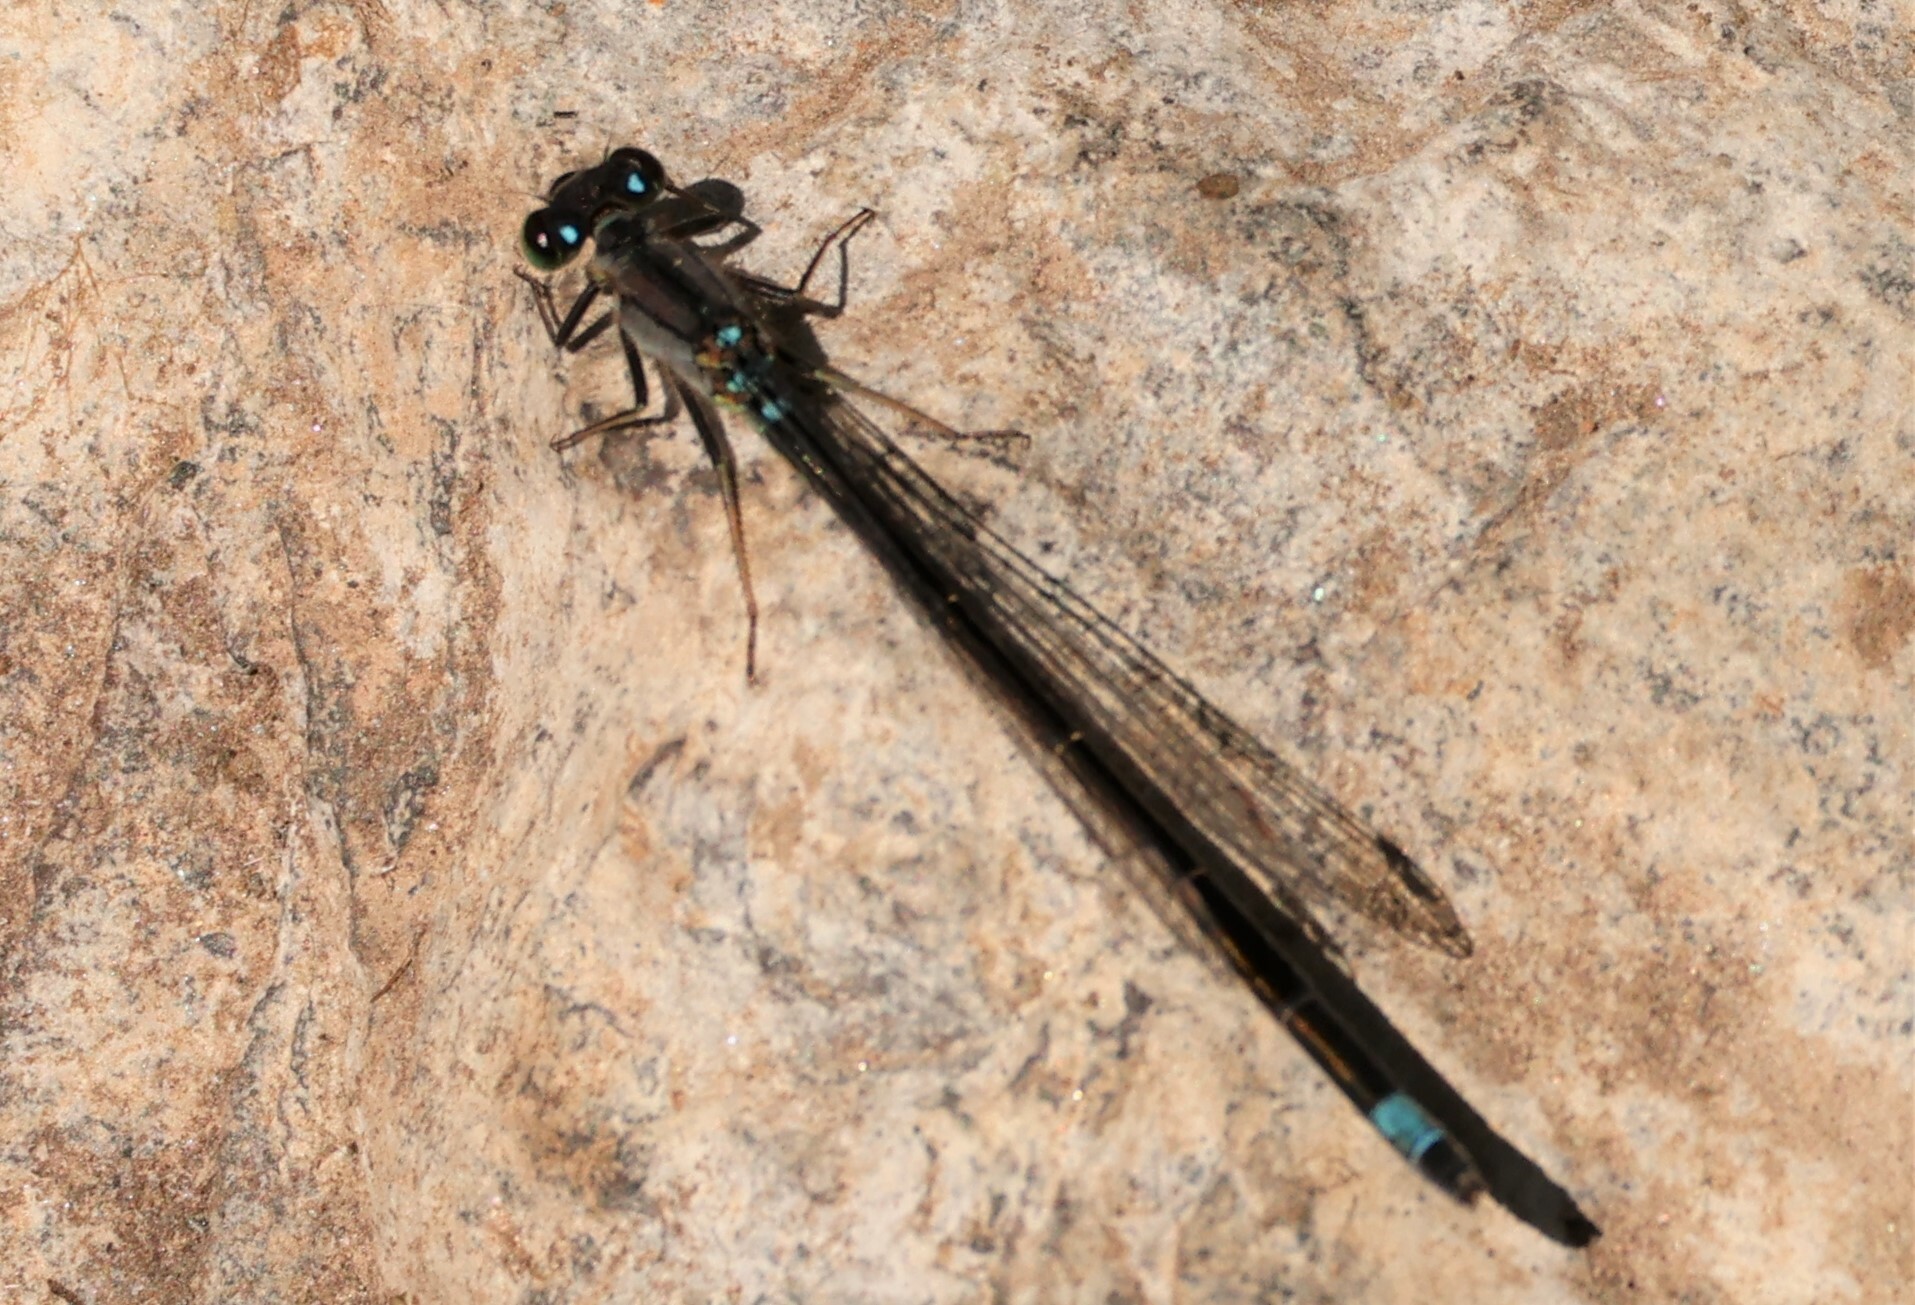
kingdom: Animalia
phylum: Arthropoda
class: Insecta
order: Odonata
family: Coenagrionidae
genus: Ischnura
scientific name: Ischnura cervula
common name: Pacific forktail
